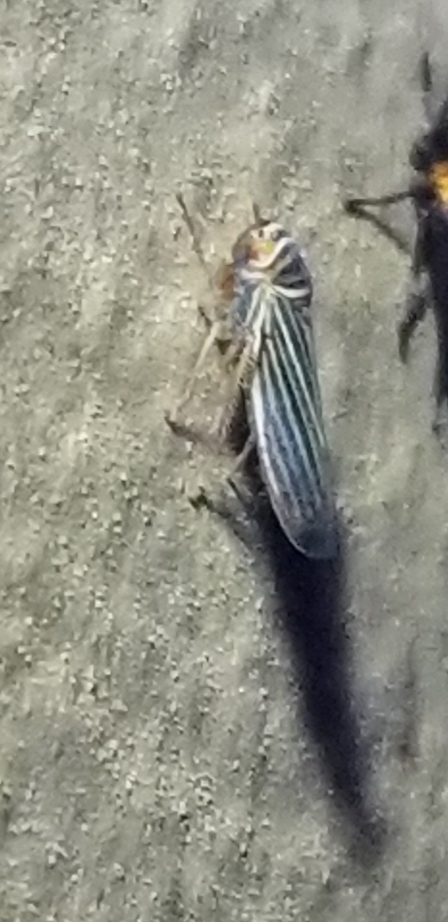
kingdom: Animalia
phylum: Arthropoda
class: Insecta
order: Hemiptera
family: Cicadellidae
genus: Tylozygus
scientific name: Tylozygus bifidus
